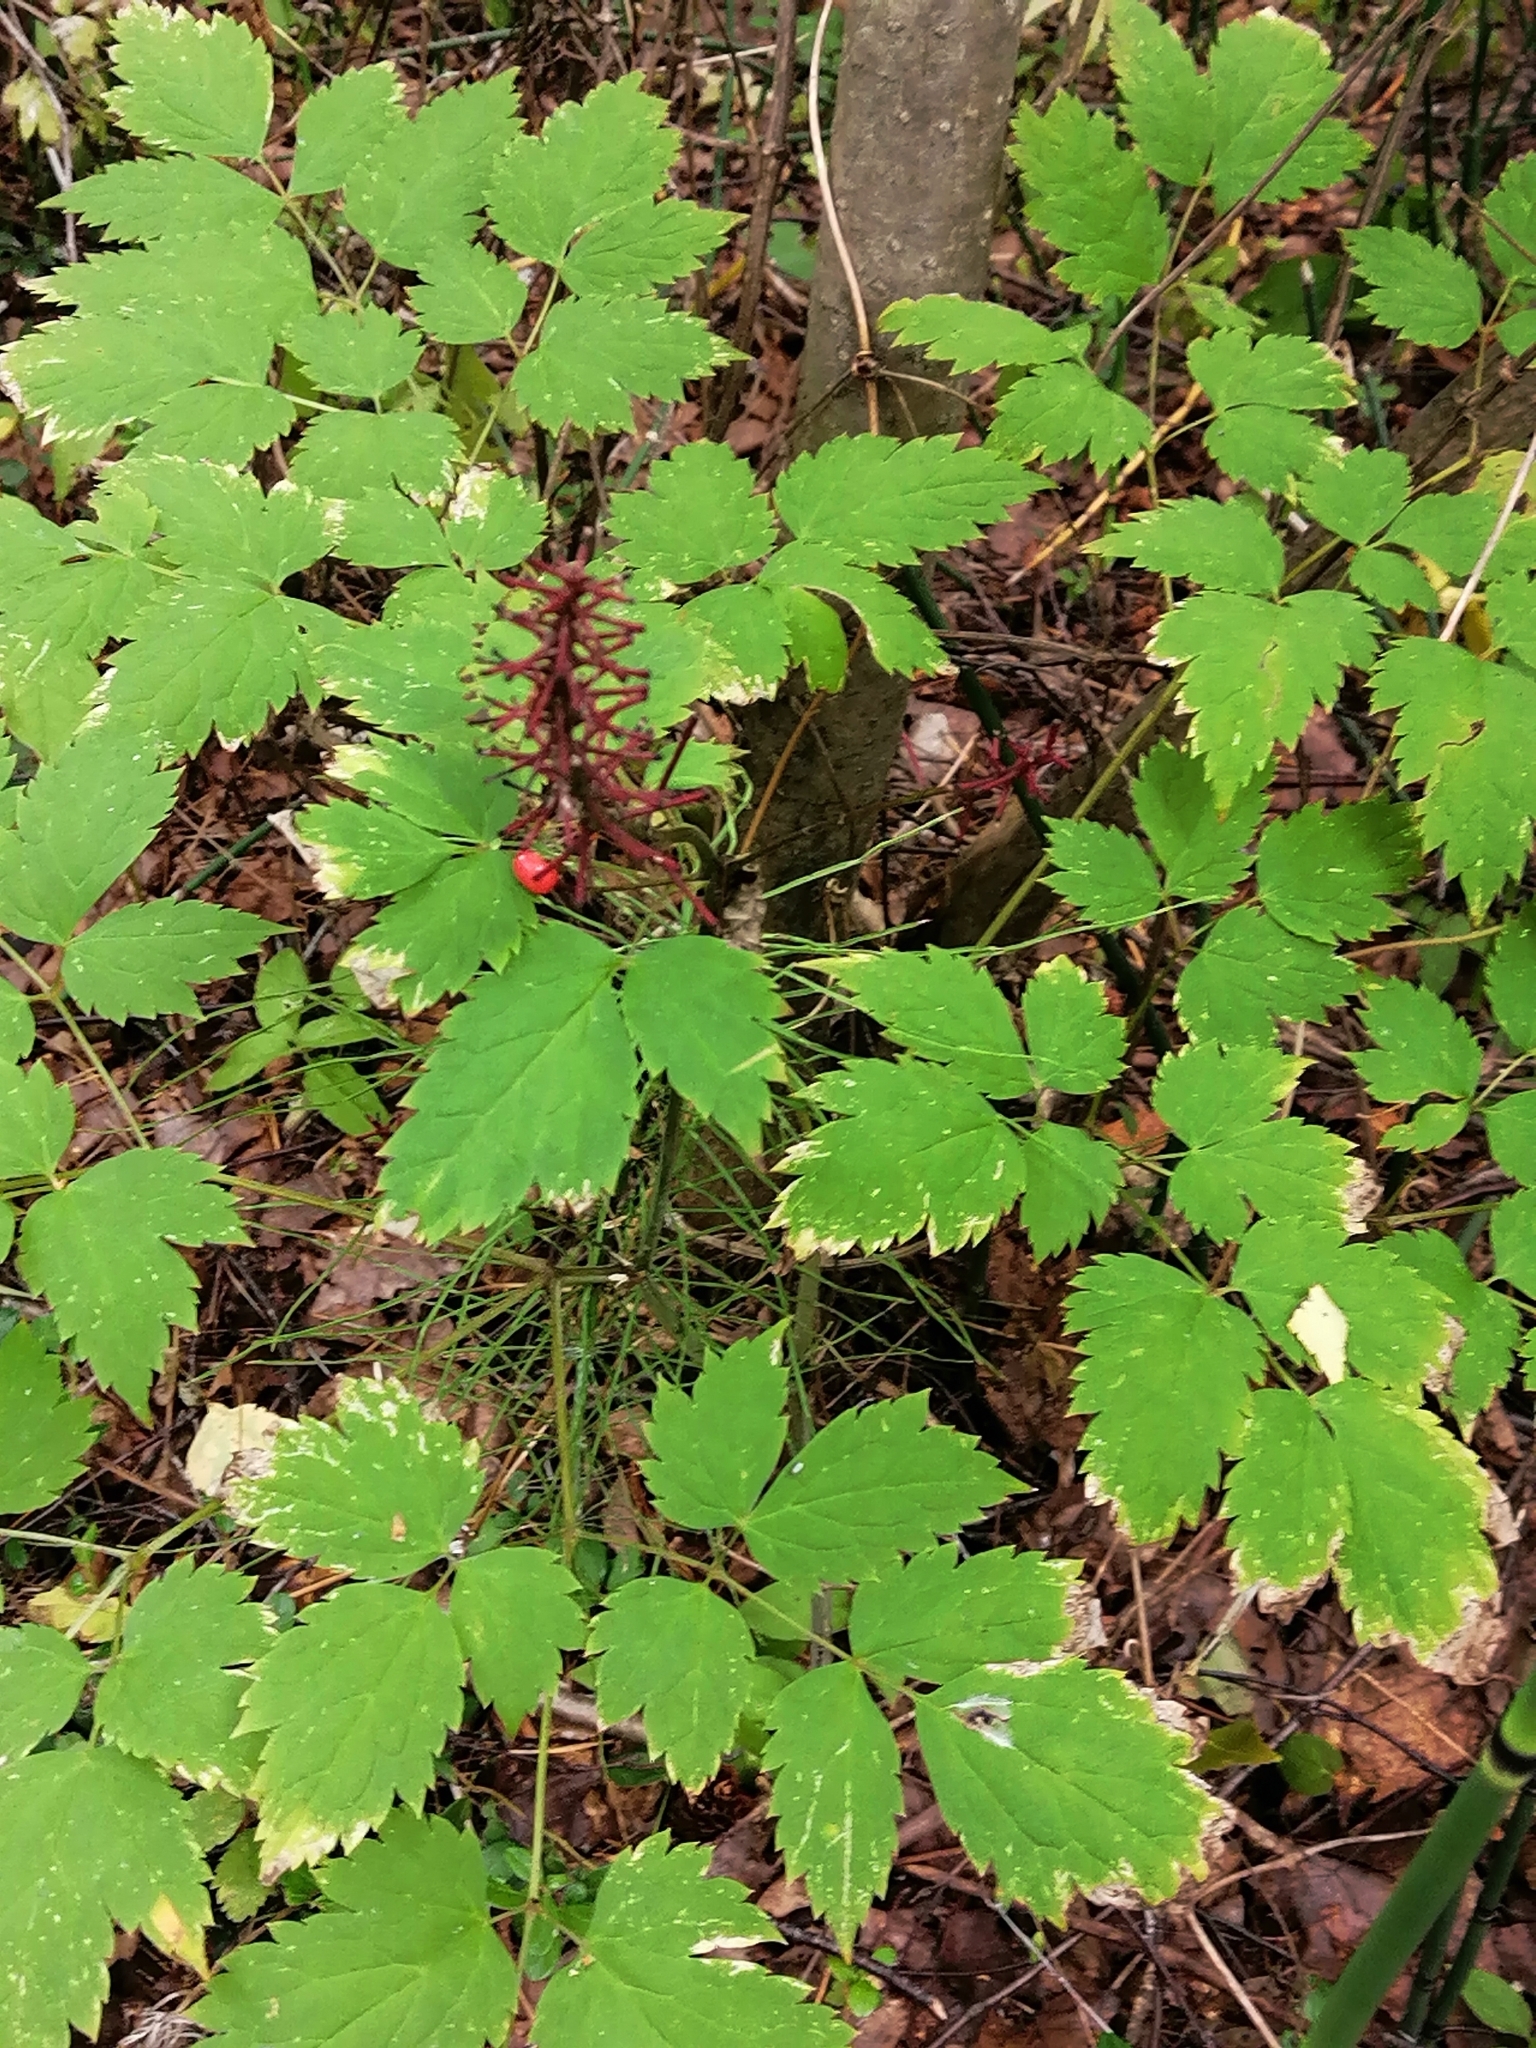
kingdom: Plantae
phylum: Tracheophyta
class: Magnoliopsida
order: Ranunculales
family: Ranunculaceae
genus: Actaea
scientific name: Actaea erythrocarpa
